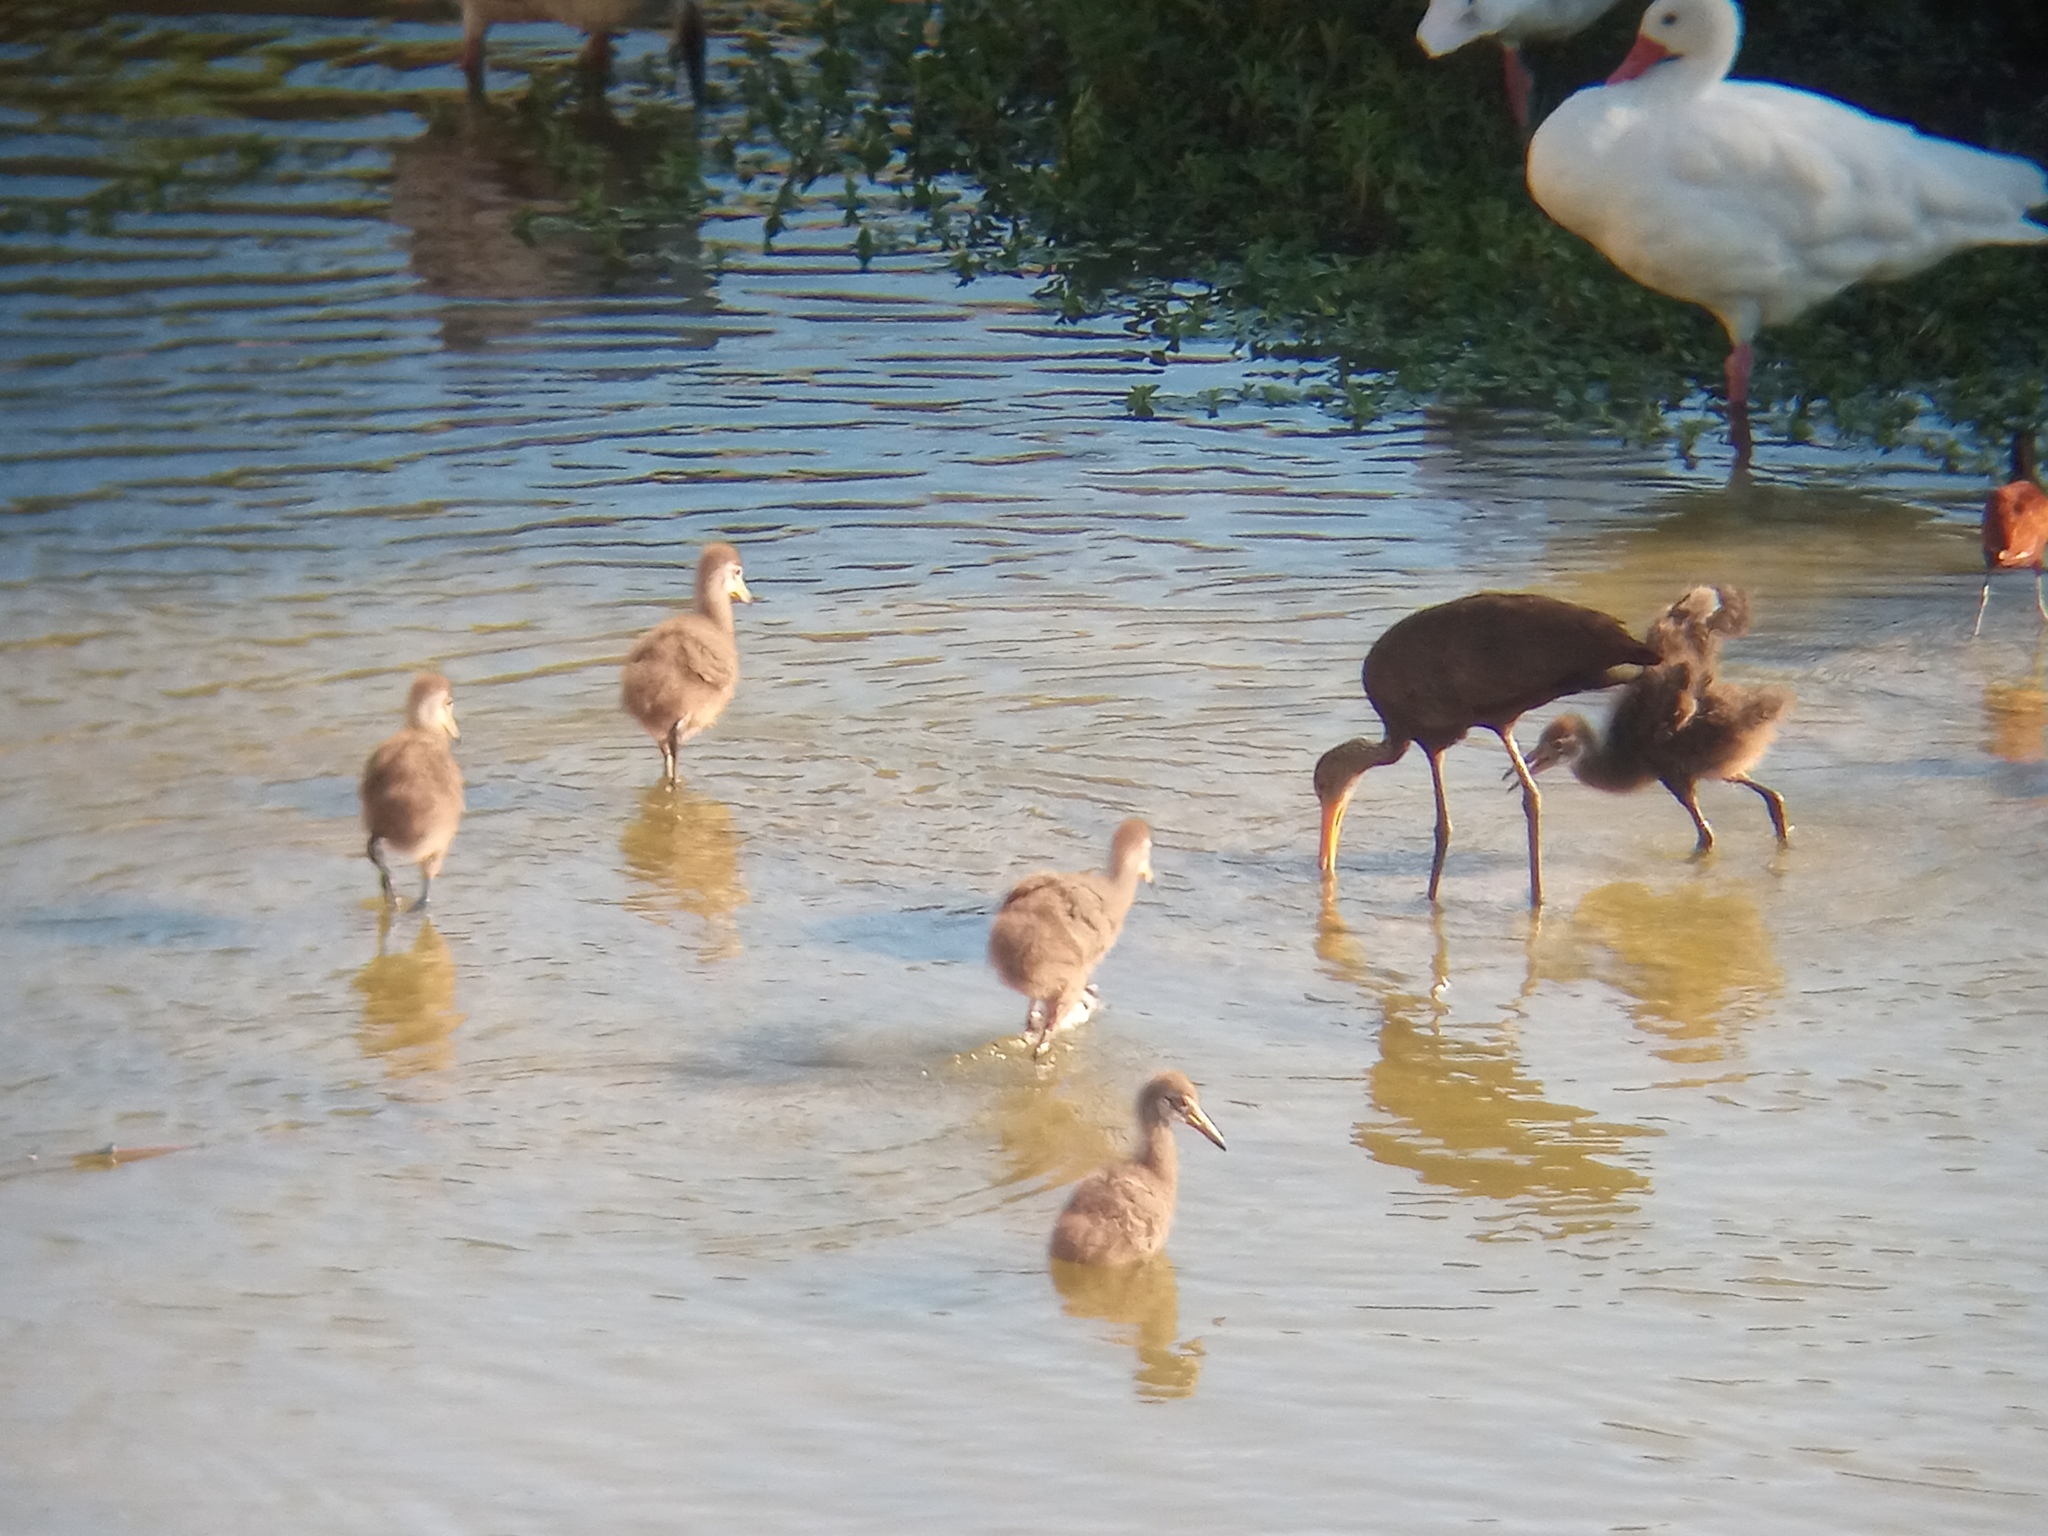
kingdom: Animalia
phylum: Chordata
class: Aves
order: Charadriiformes
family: Jacanidae
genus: Jacana
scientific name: Jacana jacana
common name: Wattled jacana
